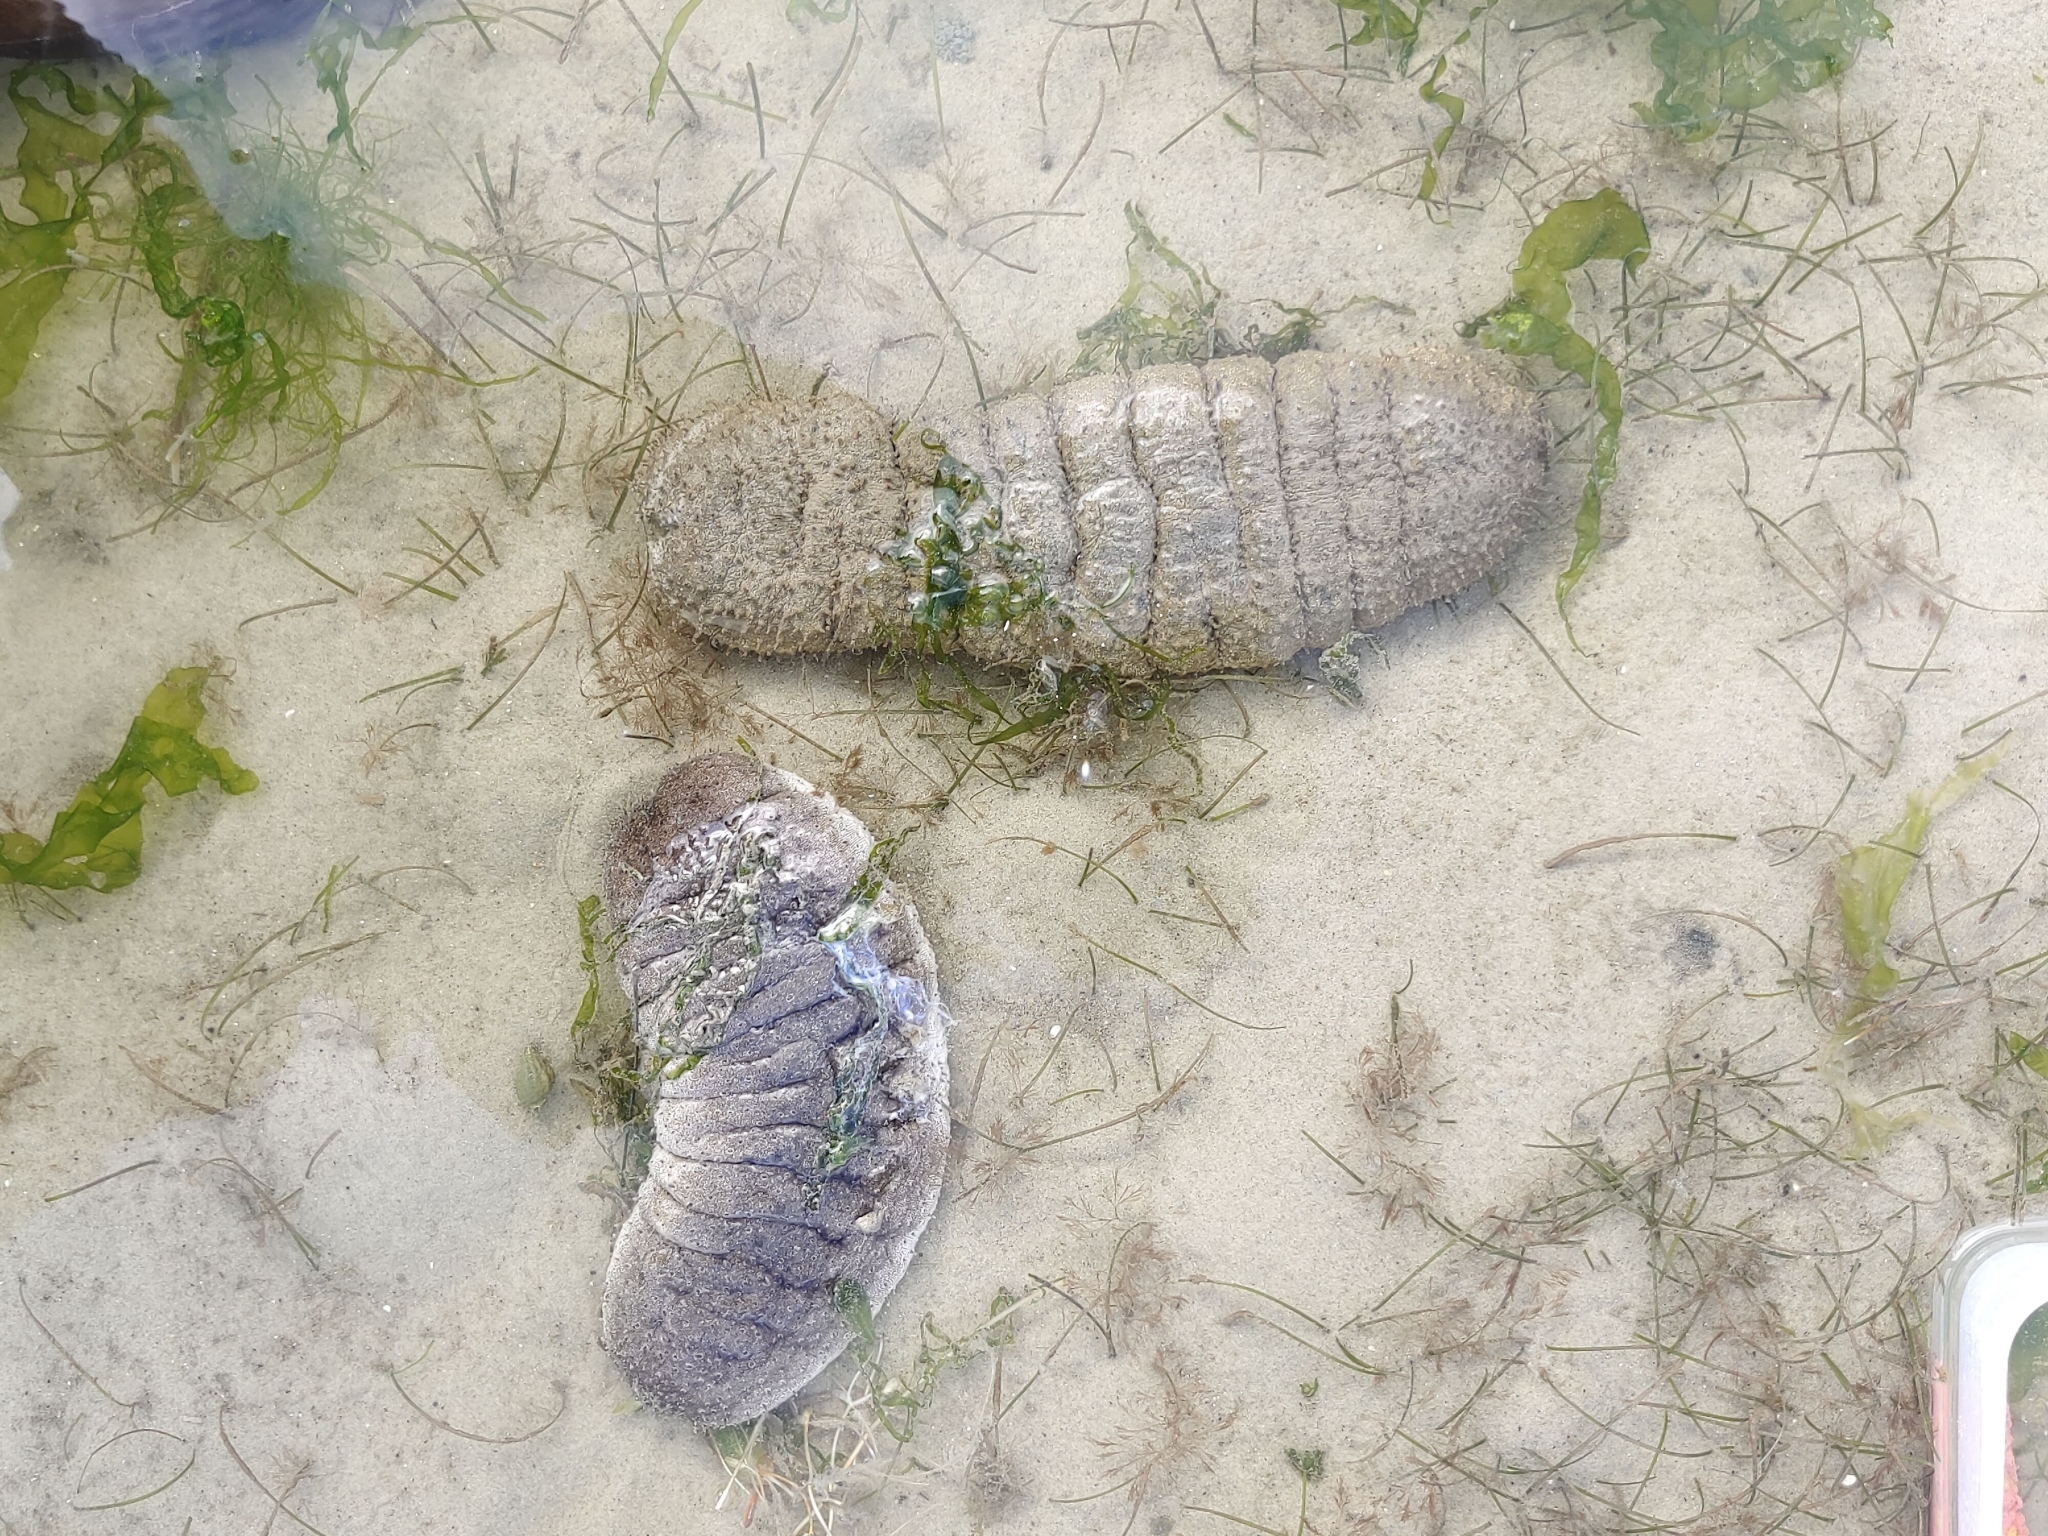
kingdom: Animalia
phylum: Echinodermata
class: Holothuroidea
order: Holothuriida
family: Holothuriidae
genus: Holothuria
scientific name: Holothuria scabra
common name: Golden sandfish
